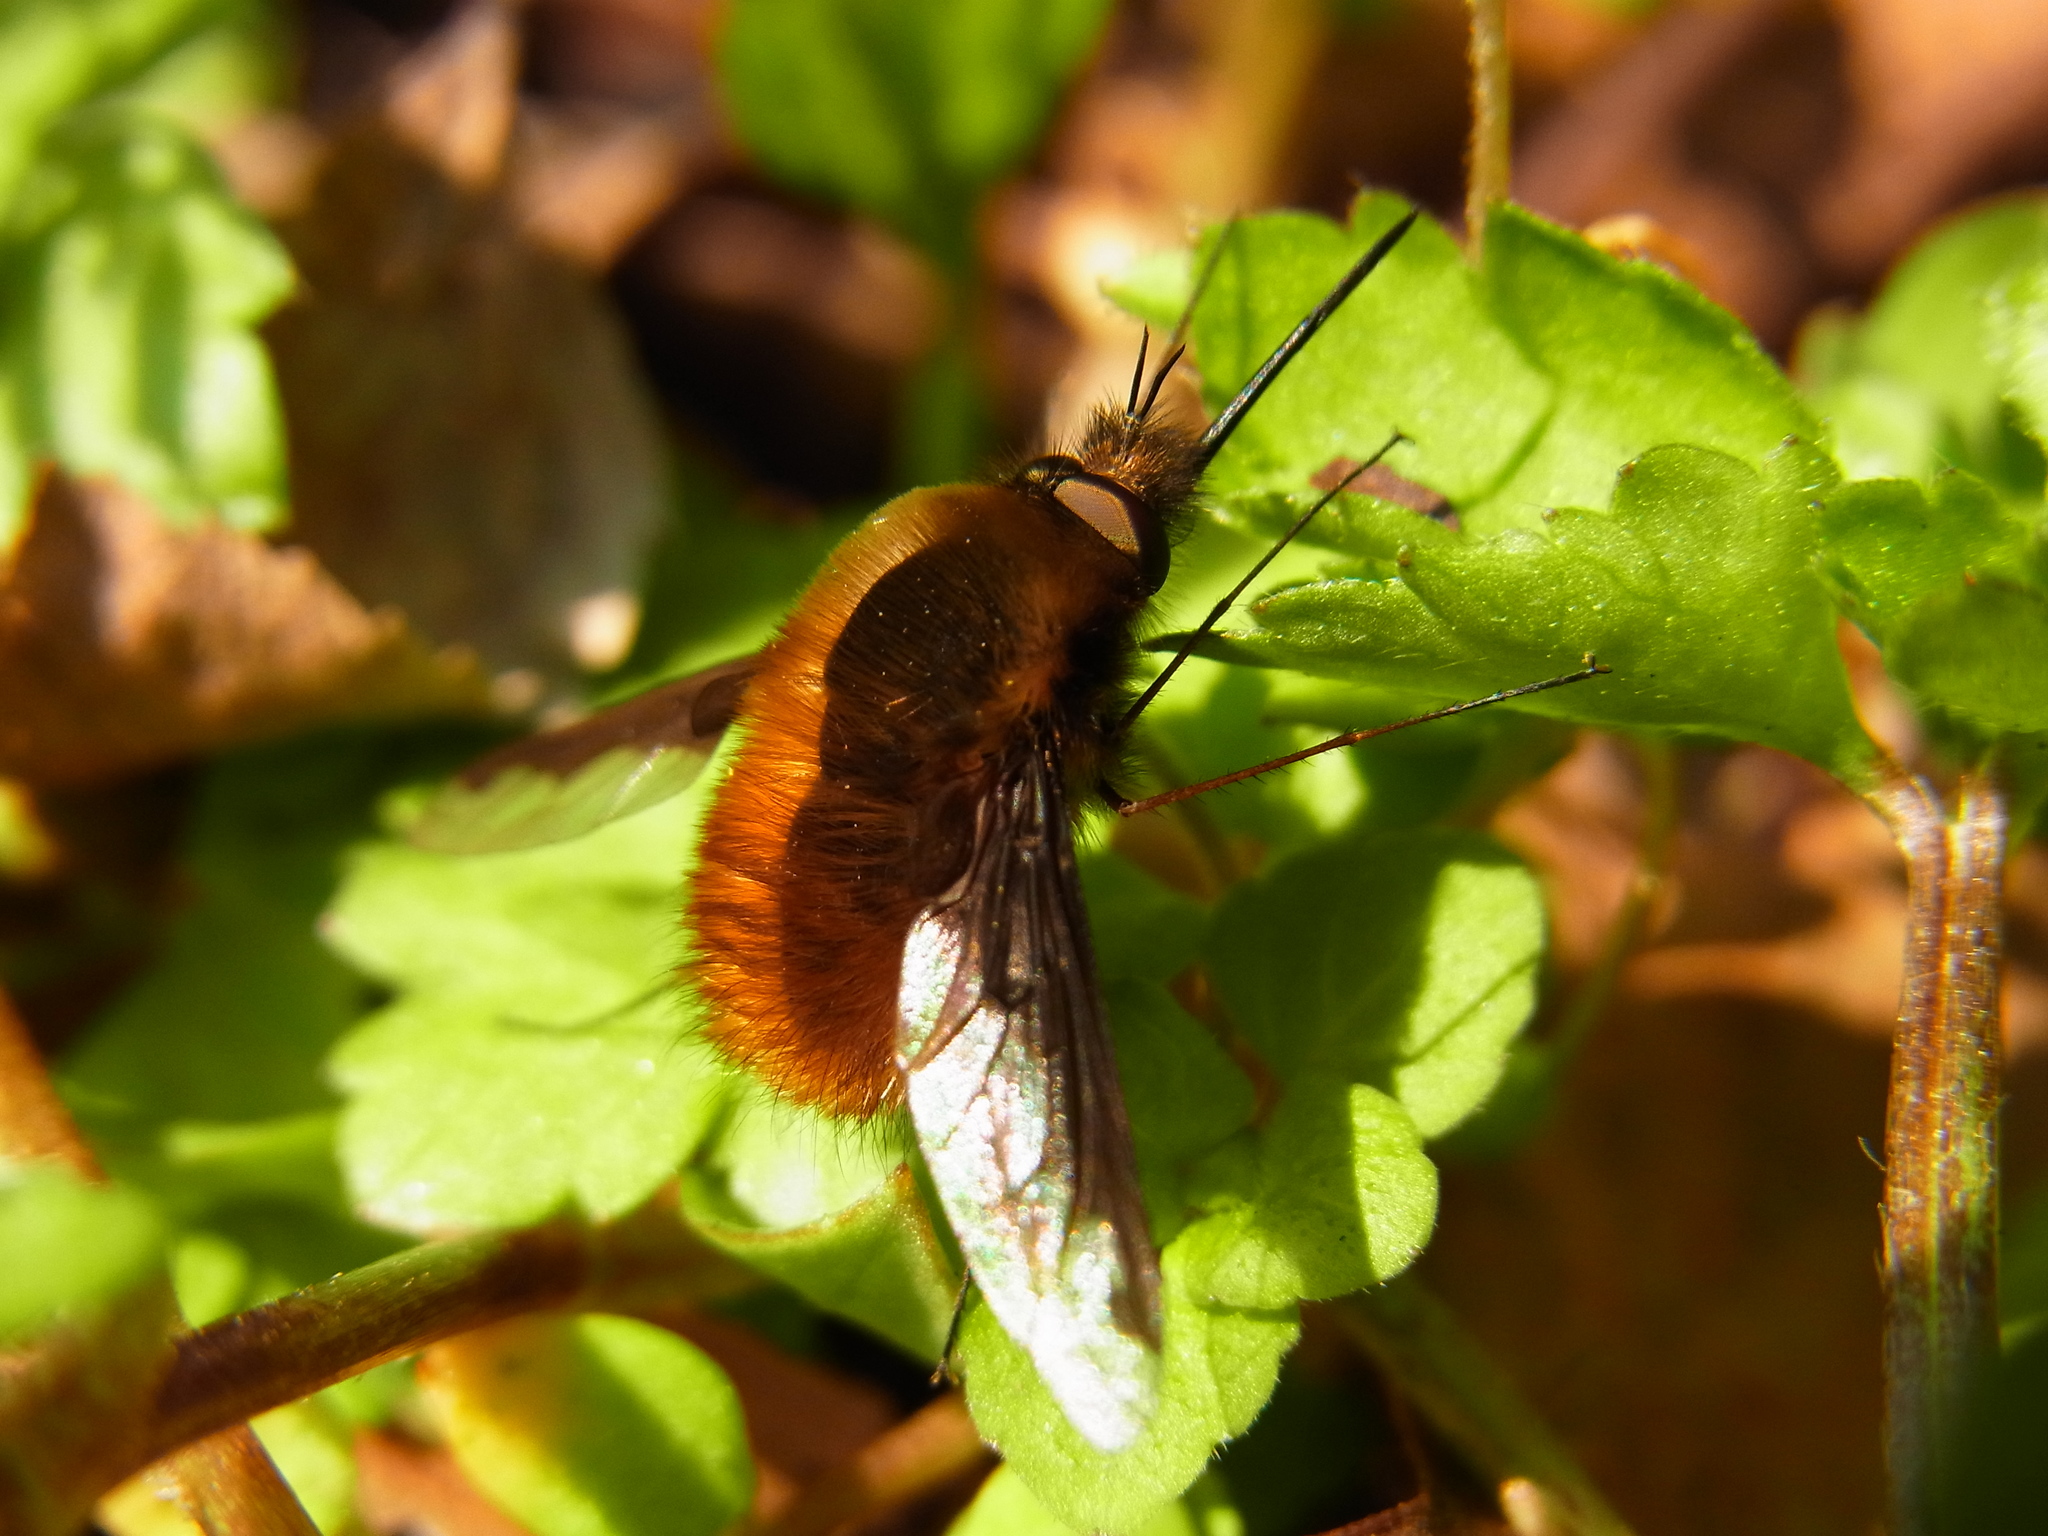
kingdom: Animalia
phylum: Arthropoda
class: Insecta
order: Diptera
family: Bombyliidae
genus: Bombylius
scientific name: Bombylius major
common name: Bee fly
